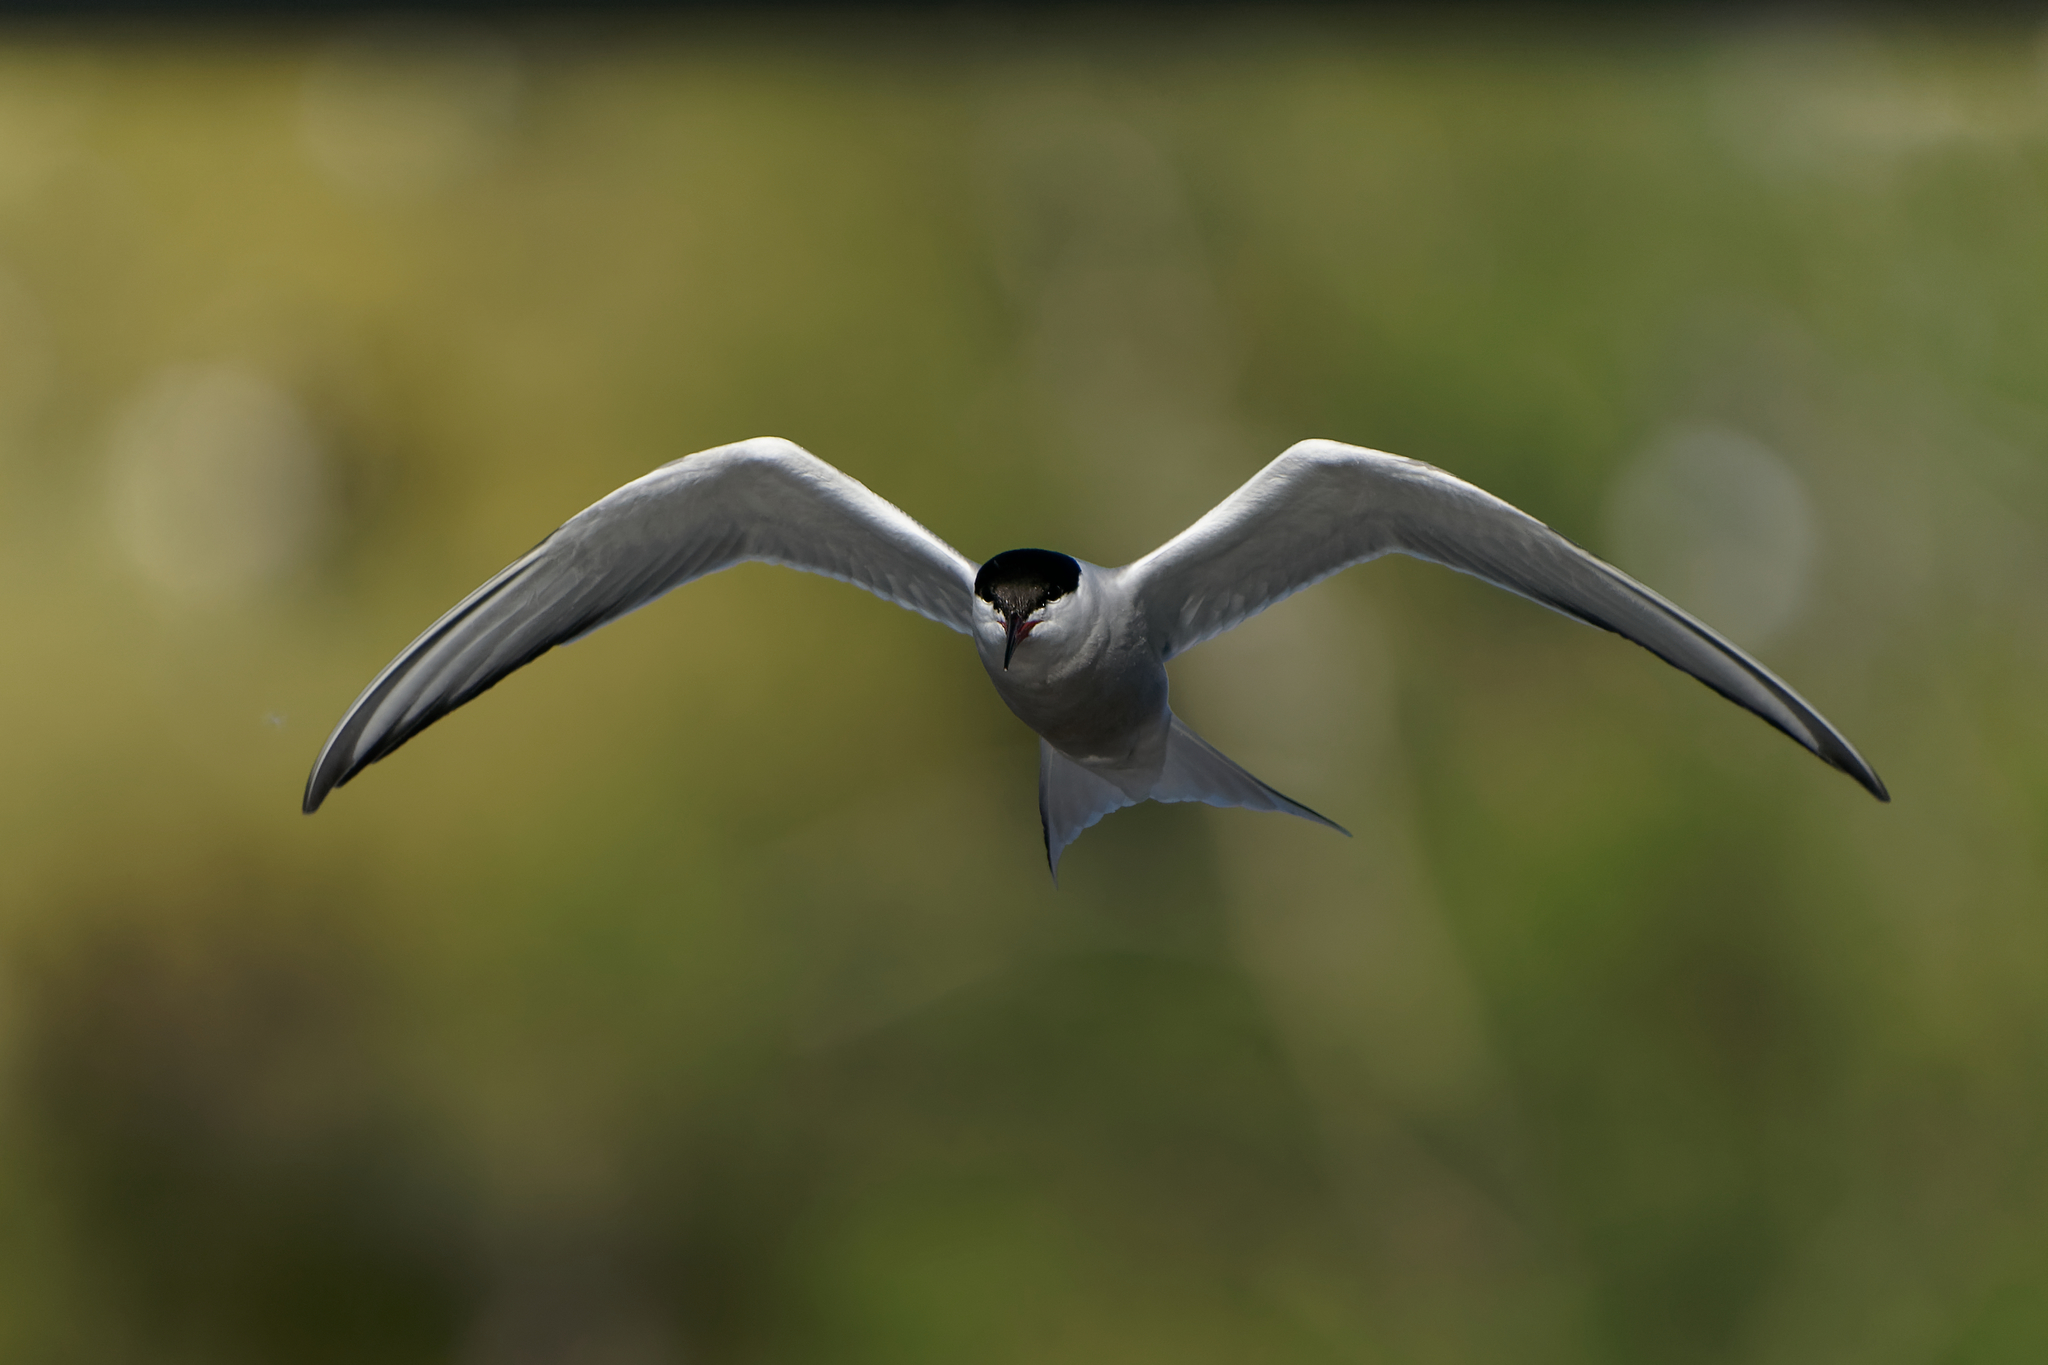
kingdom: Animalia
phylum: Chordata
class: Aves
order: Charadriiformes
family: Laridae
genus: Sterna
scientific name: Sterna hirundo
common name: Common tern
